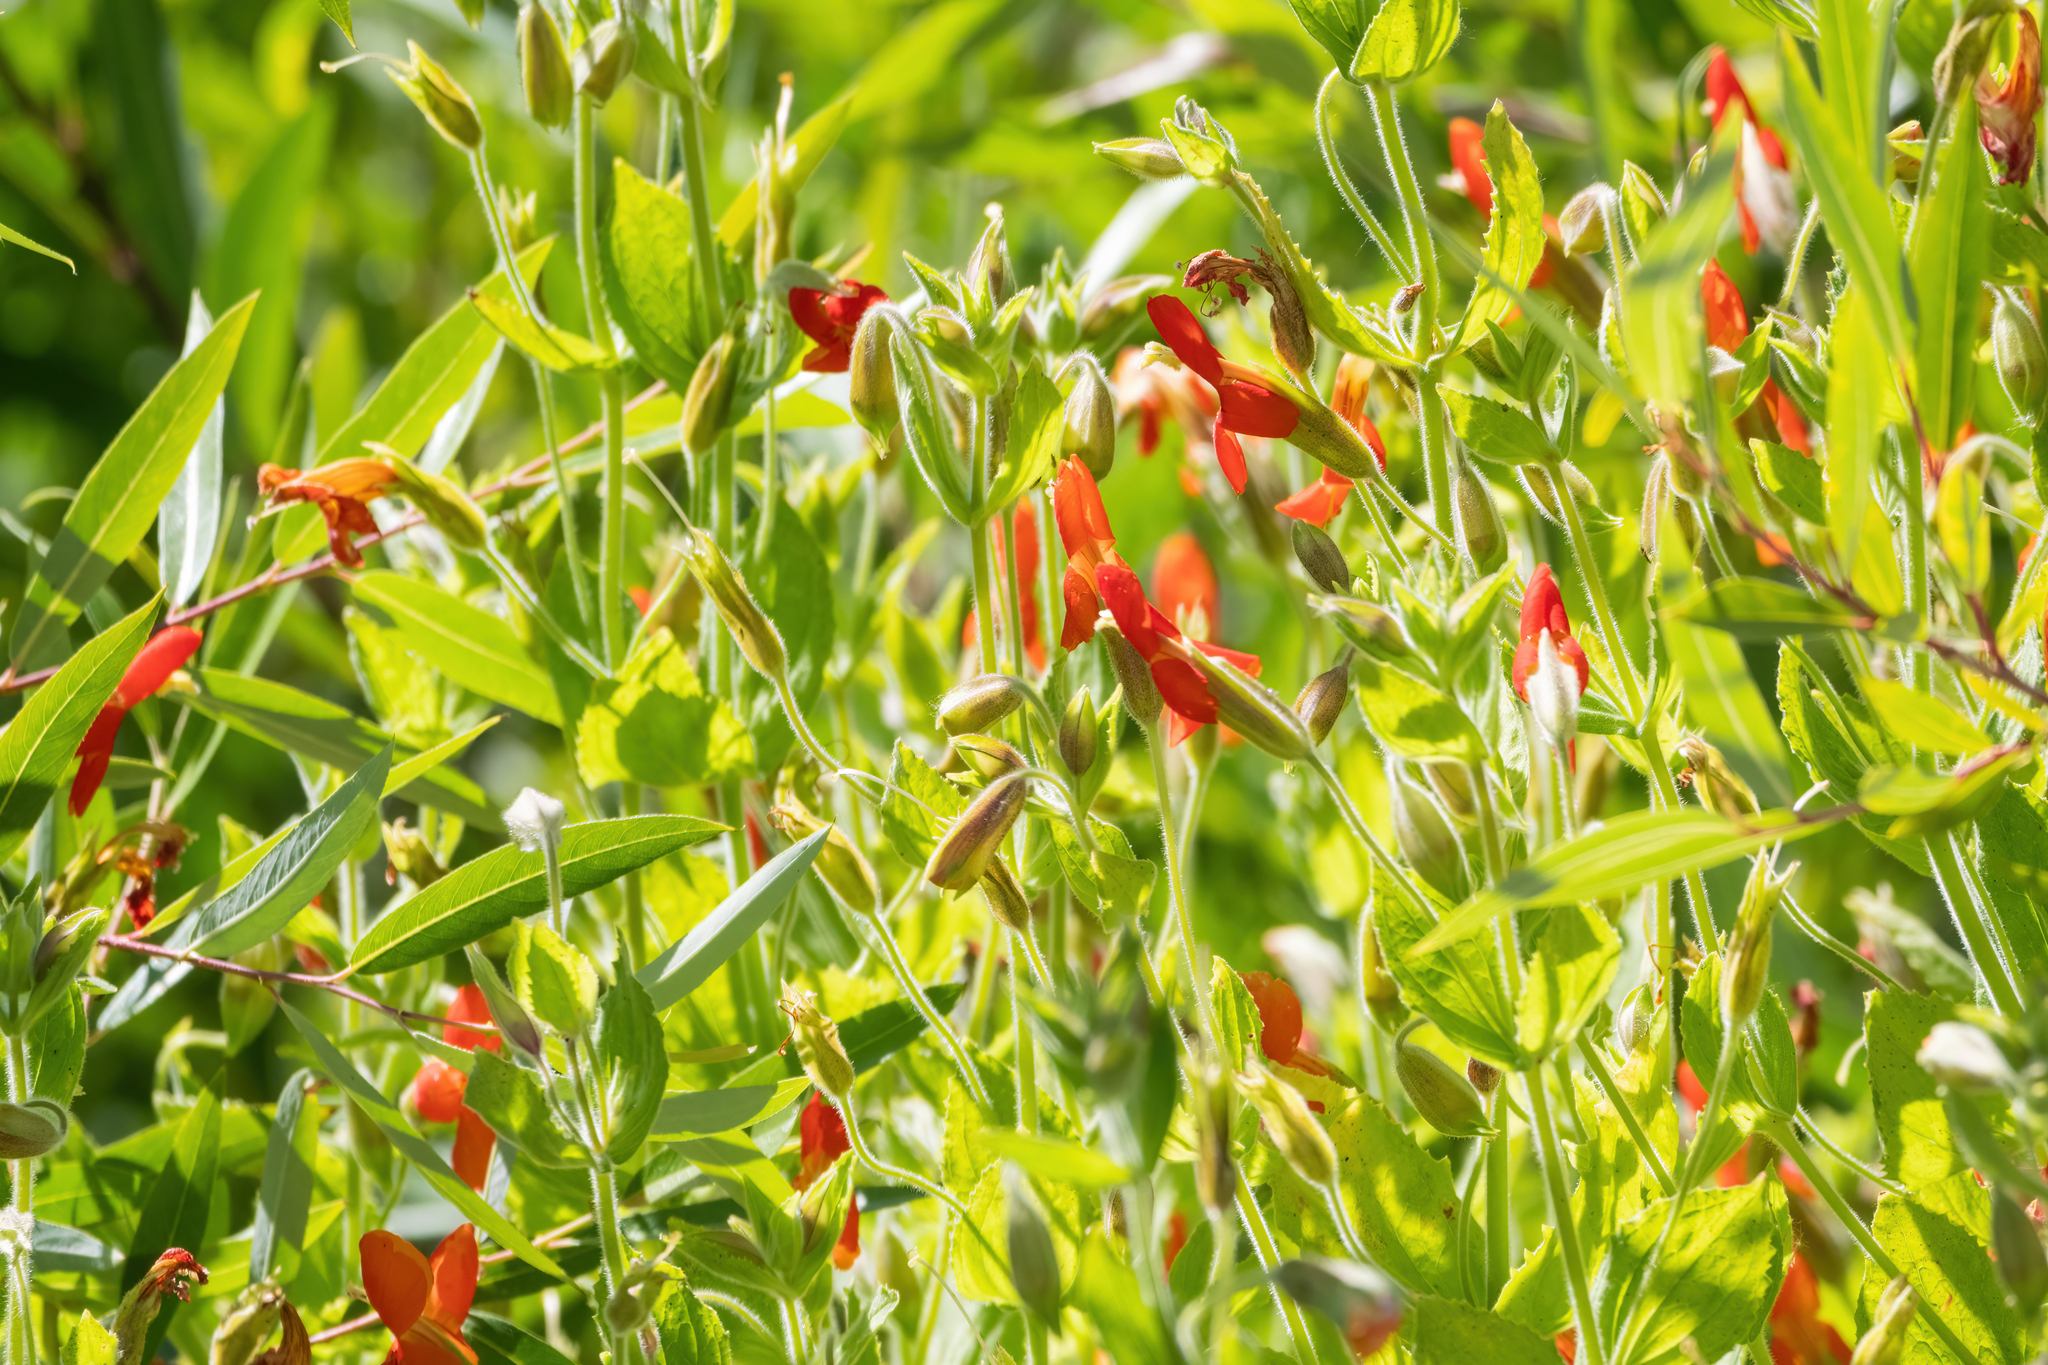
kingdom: Plantae
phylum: Tracheophyta
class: Magnoliopsida
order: Lamiales
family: Phrymaceae
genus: Erythranthe
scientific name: Erythranthe cardinalis
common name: Scarlet monkey-flower
